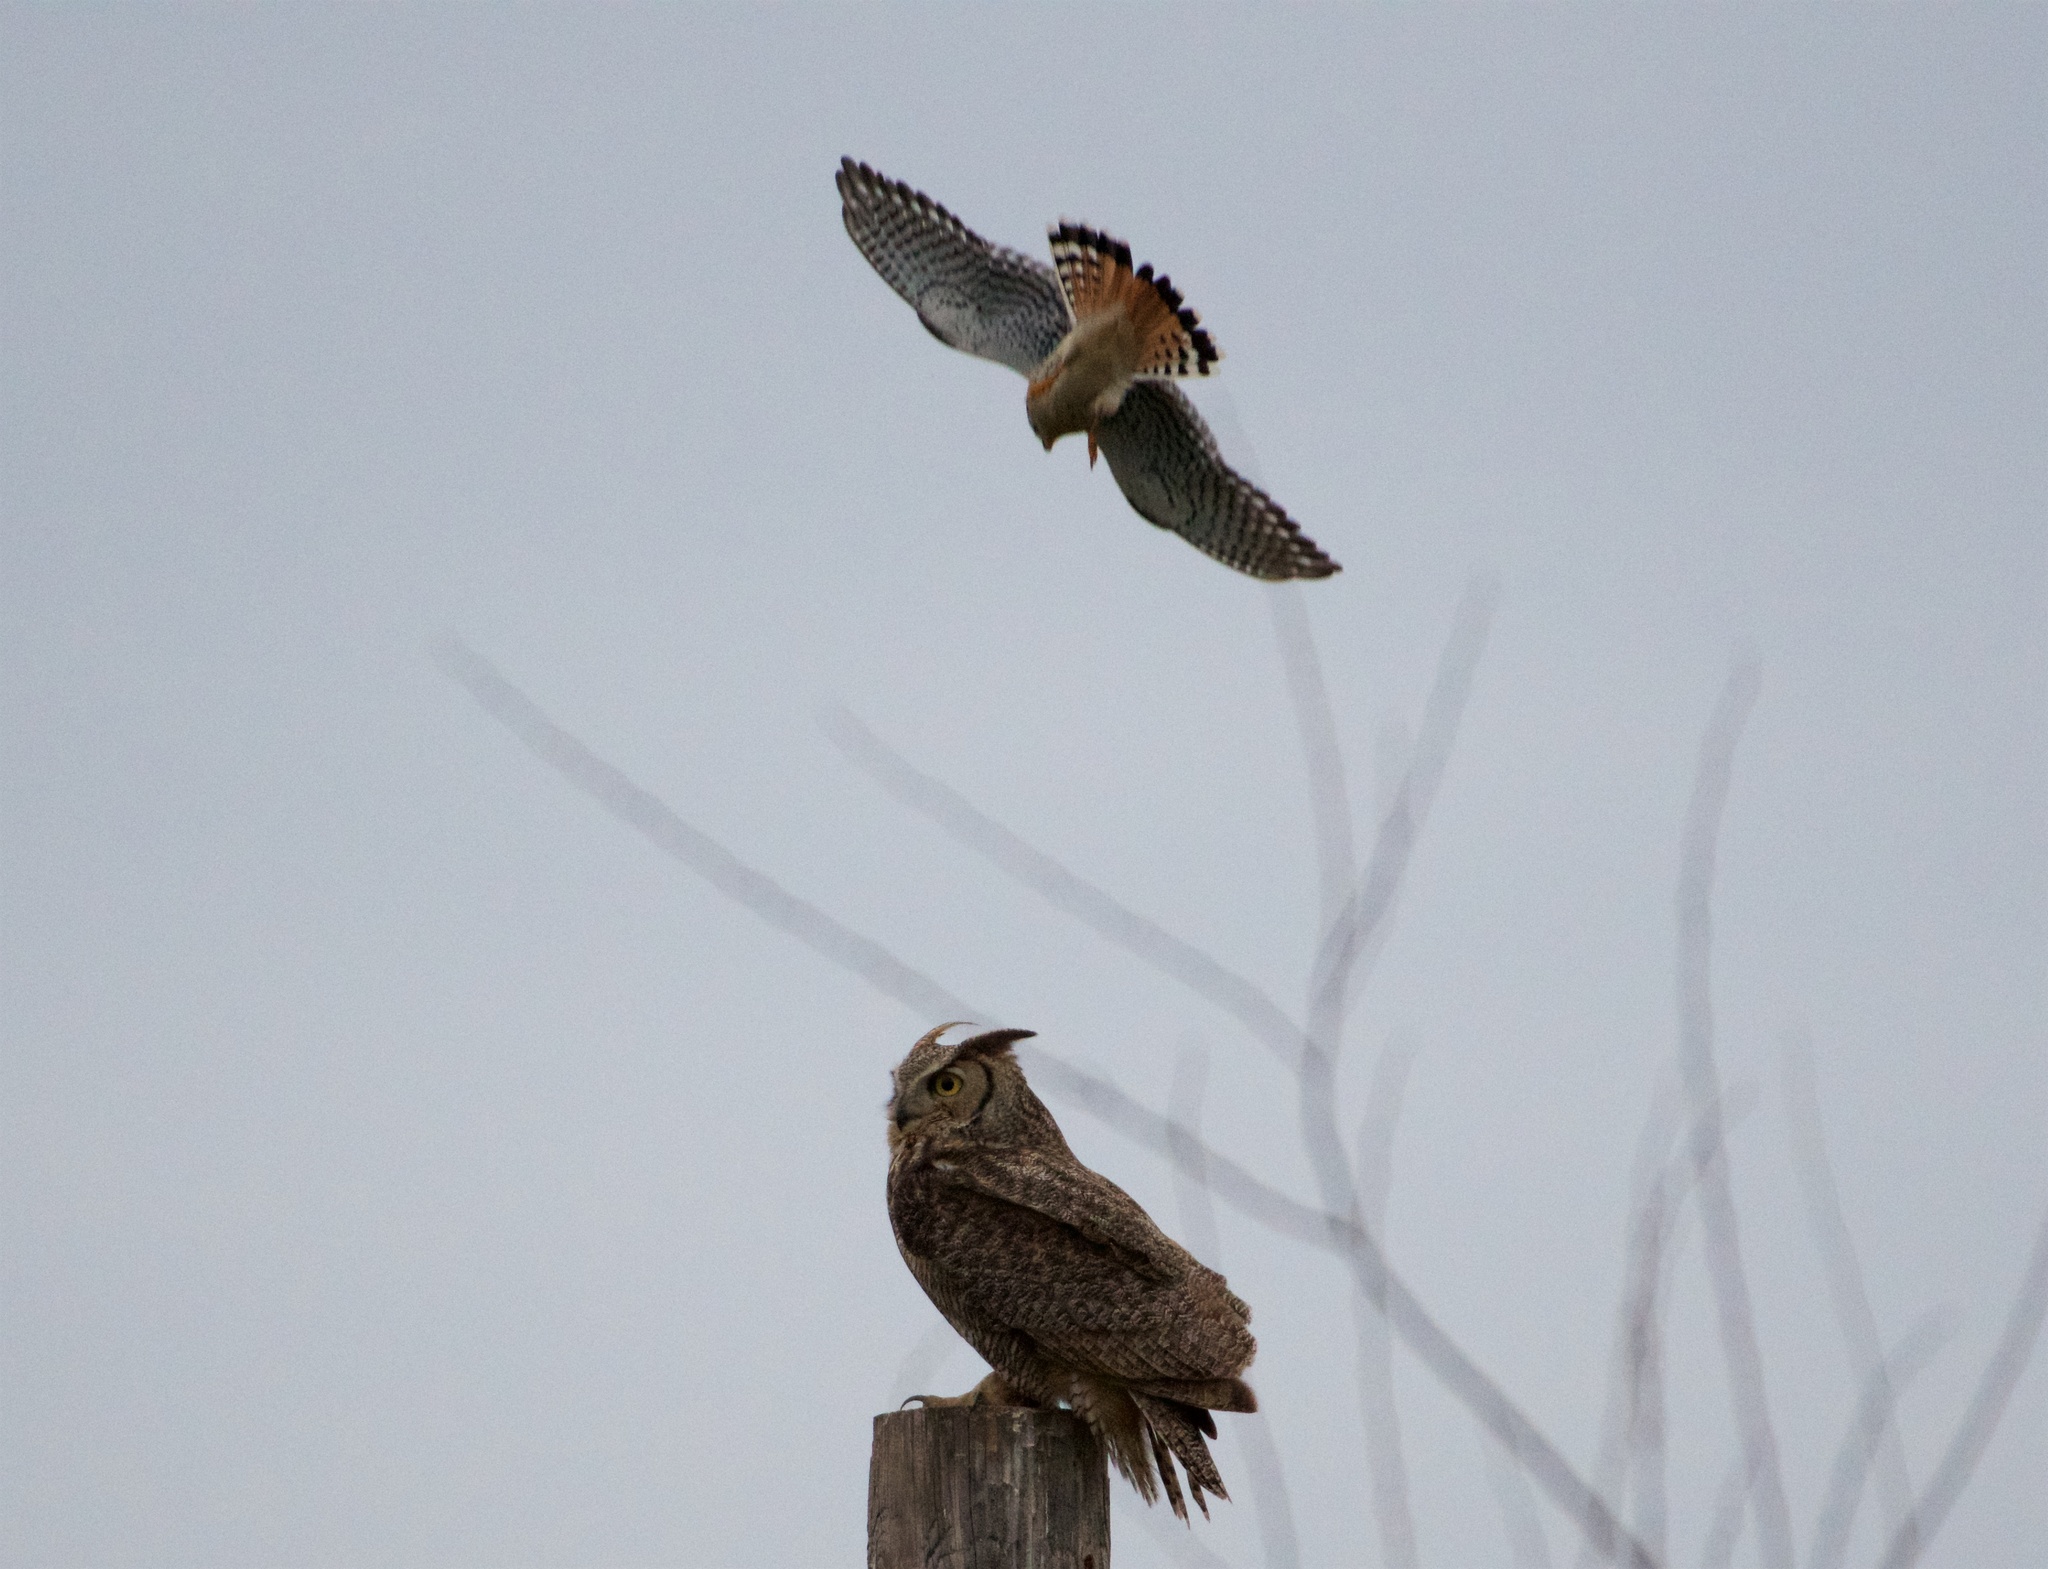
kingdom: Animalia
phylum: Chordata
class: Aves
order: Strigiformes
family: Strigidae
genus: Bubo
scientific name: Bubo virginianus
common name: Great horned owl
